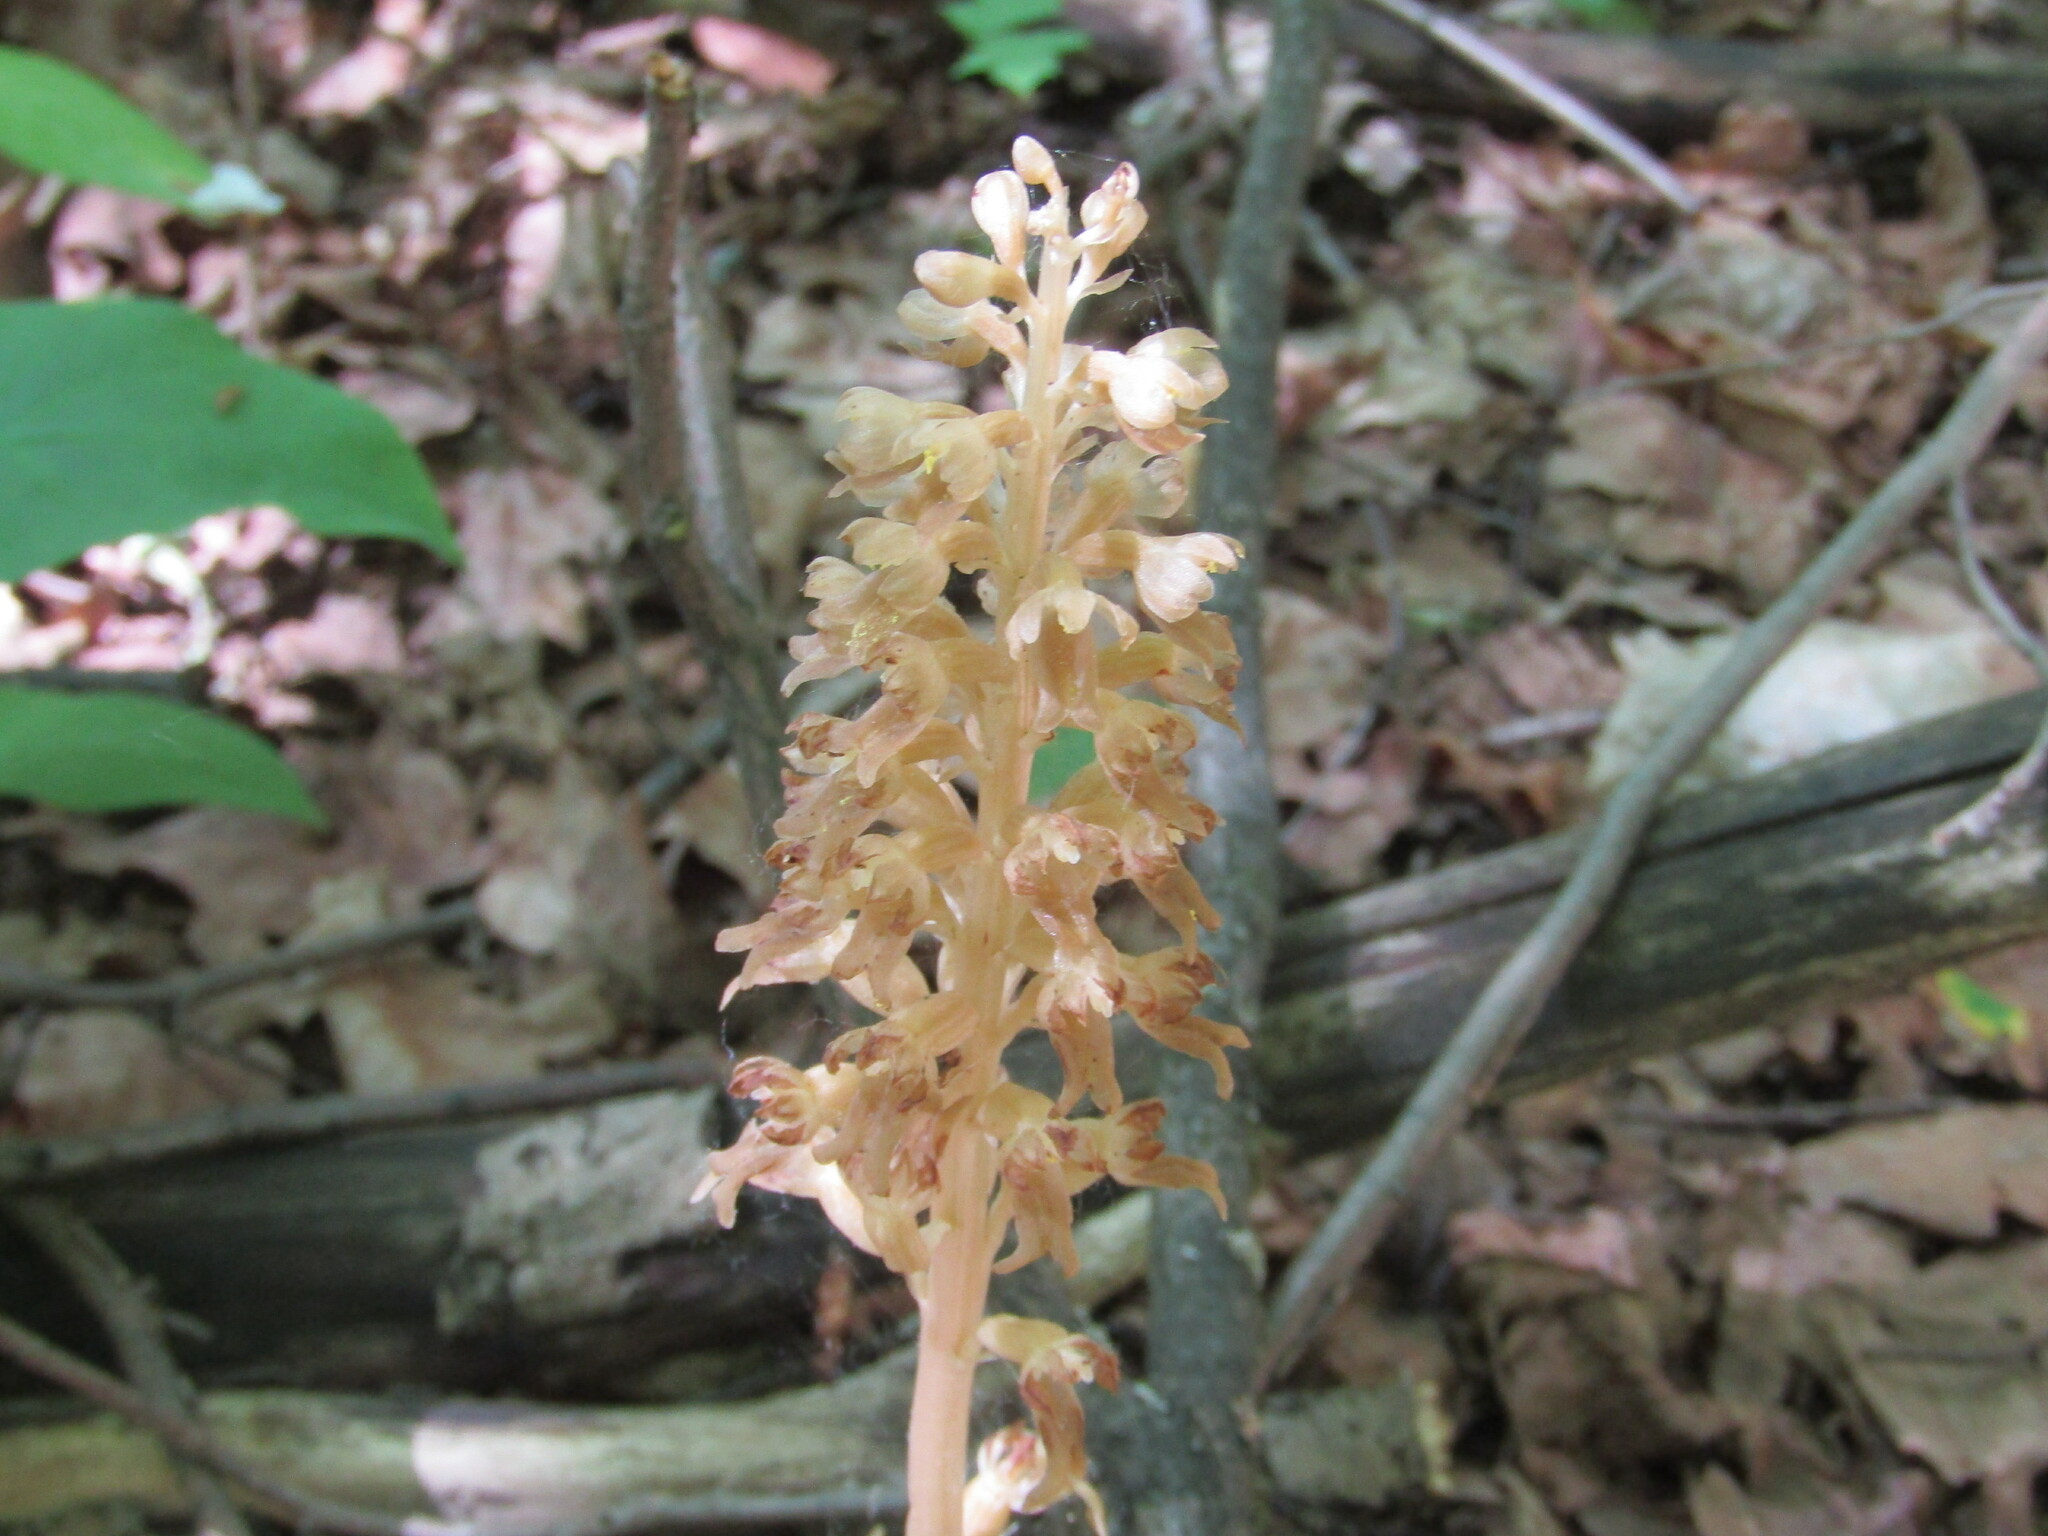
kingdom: Plantae
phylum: Tracheophyta
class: Liliopsida
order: Asparagales
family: Orchidaceae
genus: Neottia
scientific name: Neottia nidus-avis
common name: Bird's-nest orchid
